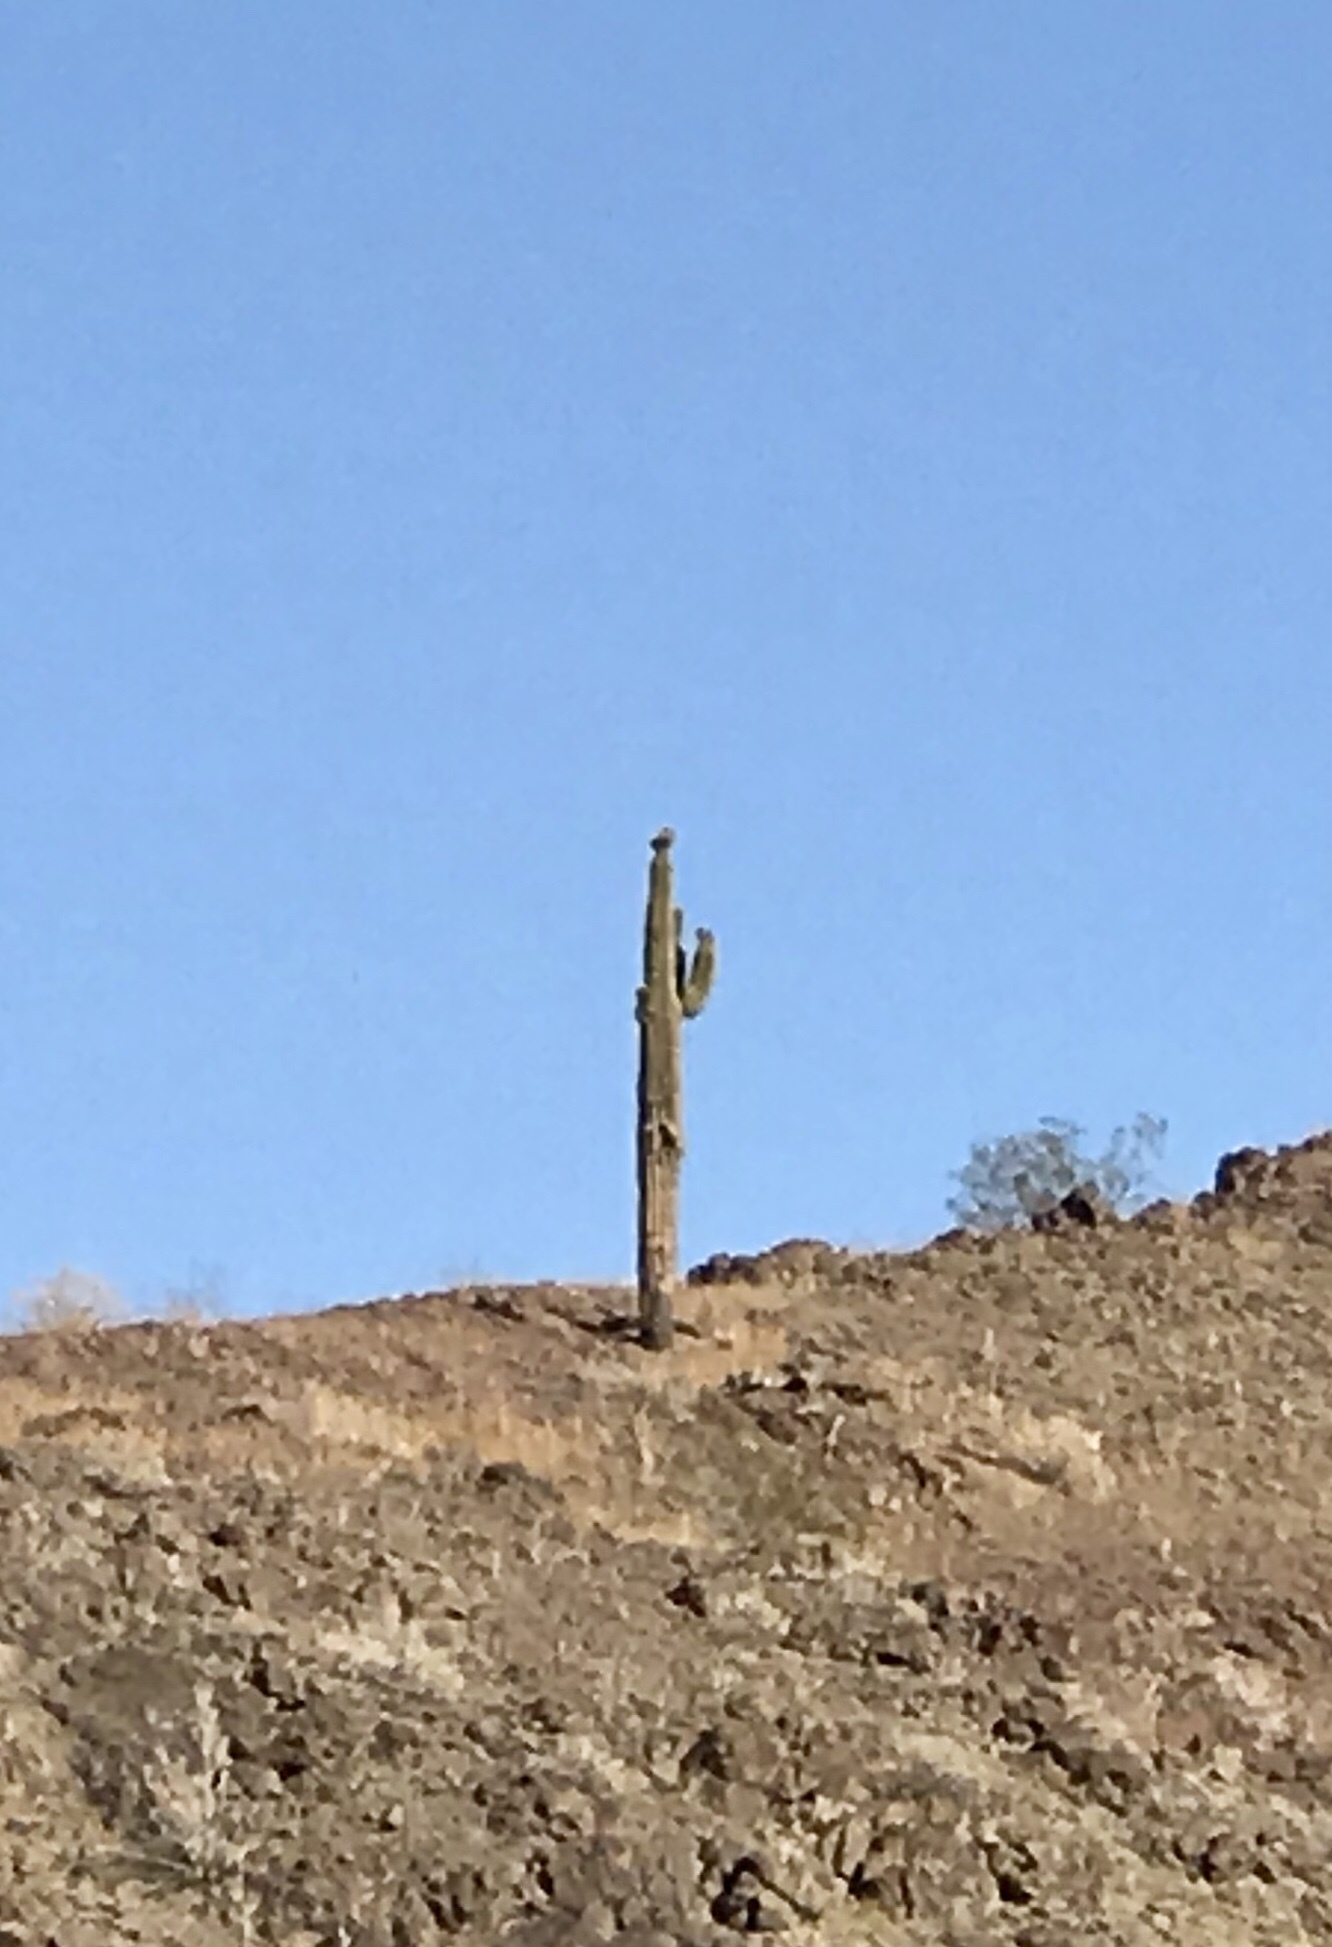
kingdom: Plantae
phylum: Tracheophyta
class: Magnoliopsida
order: Caryophyllales
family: Cactaceae
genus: Carnegiea
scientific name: Carnegiea gigantea
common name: Saguaro
